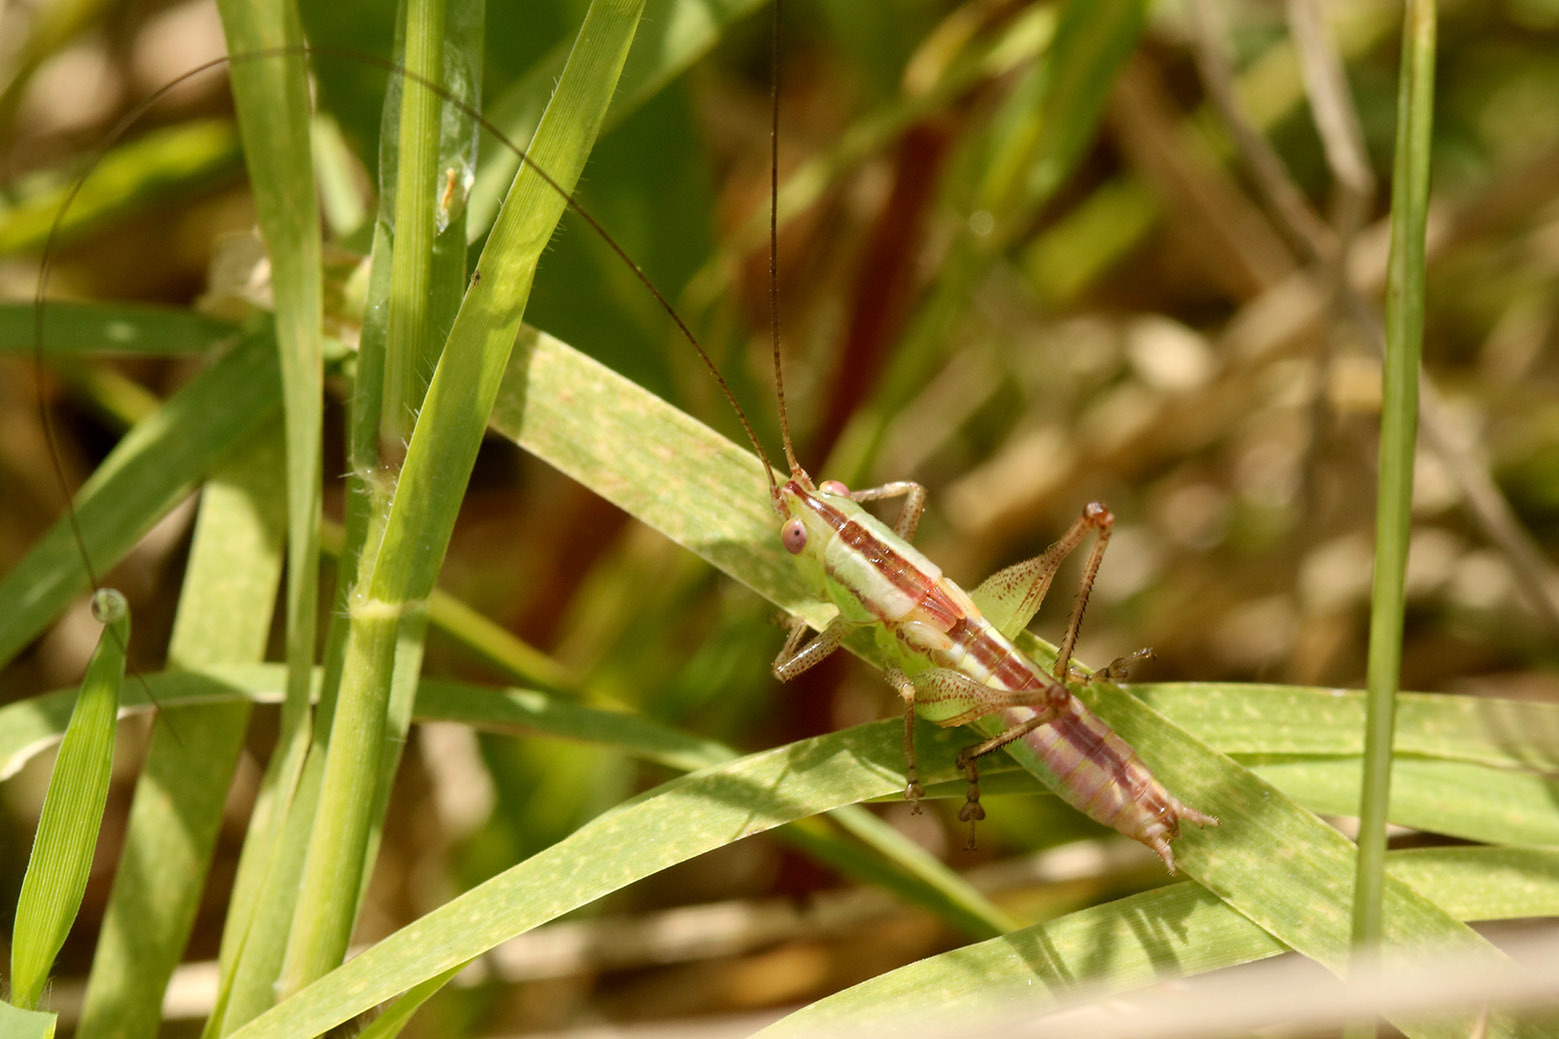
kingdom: Animalia
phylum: Arthropoda
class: Insecta
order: Orthoptera
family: Tettigoniidae
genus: Conocephalus
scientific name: Conocephalus doryphorus
